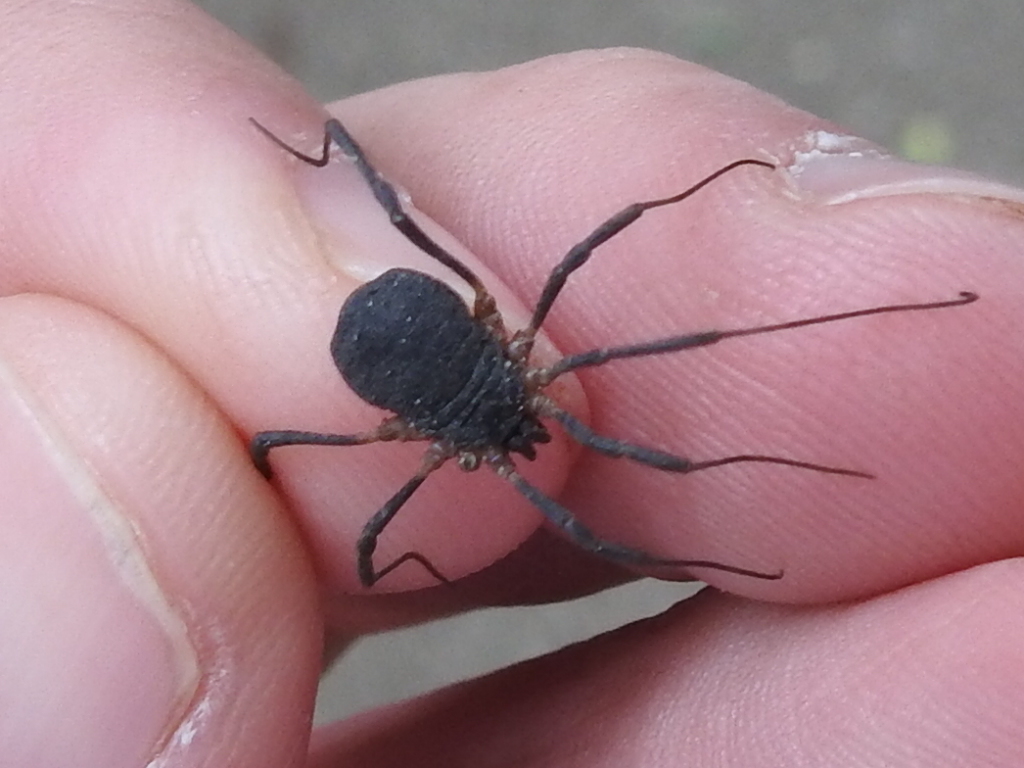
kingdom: Animalia
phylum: Arthropoda
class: Arachnida
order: Opiliones
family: Sclerosomatidae
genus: Eumesosoma
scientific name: Eumesosoma roeweri
